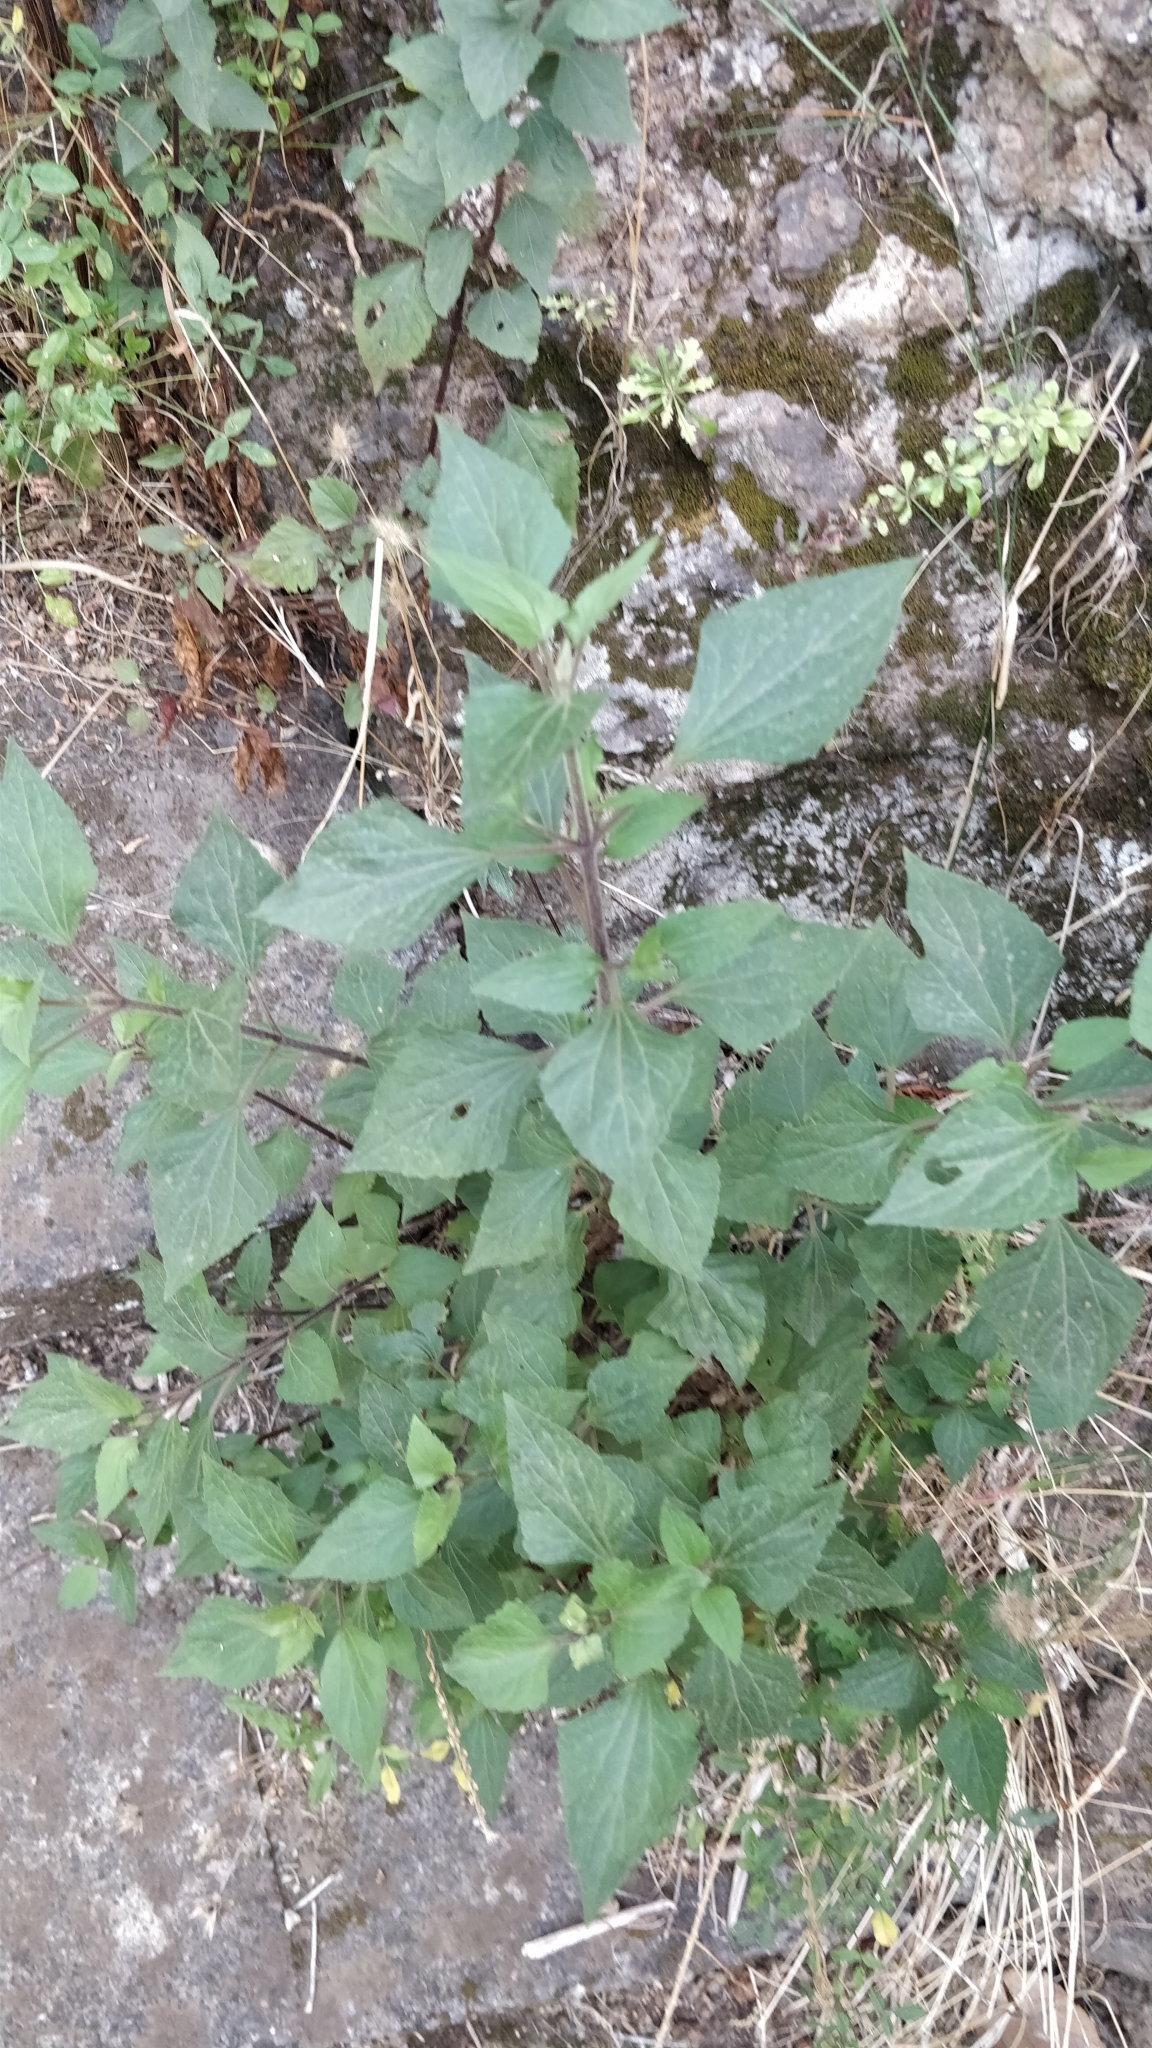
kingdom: Plantae
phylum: Tracheophyta
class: Magnoliopsida
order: Asterales
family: Asteraceae
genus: Ageratina
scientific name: Ageratina adenophora
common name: Sticky snakeroot
